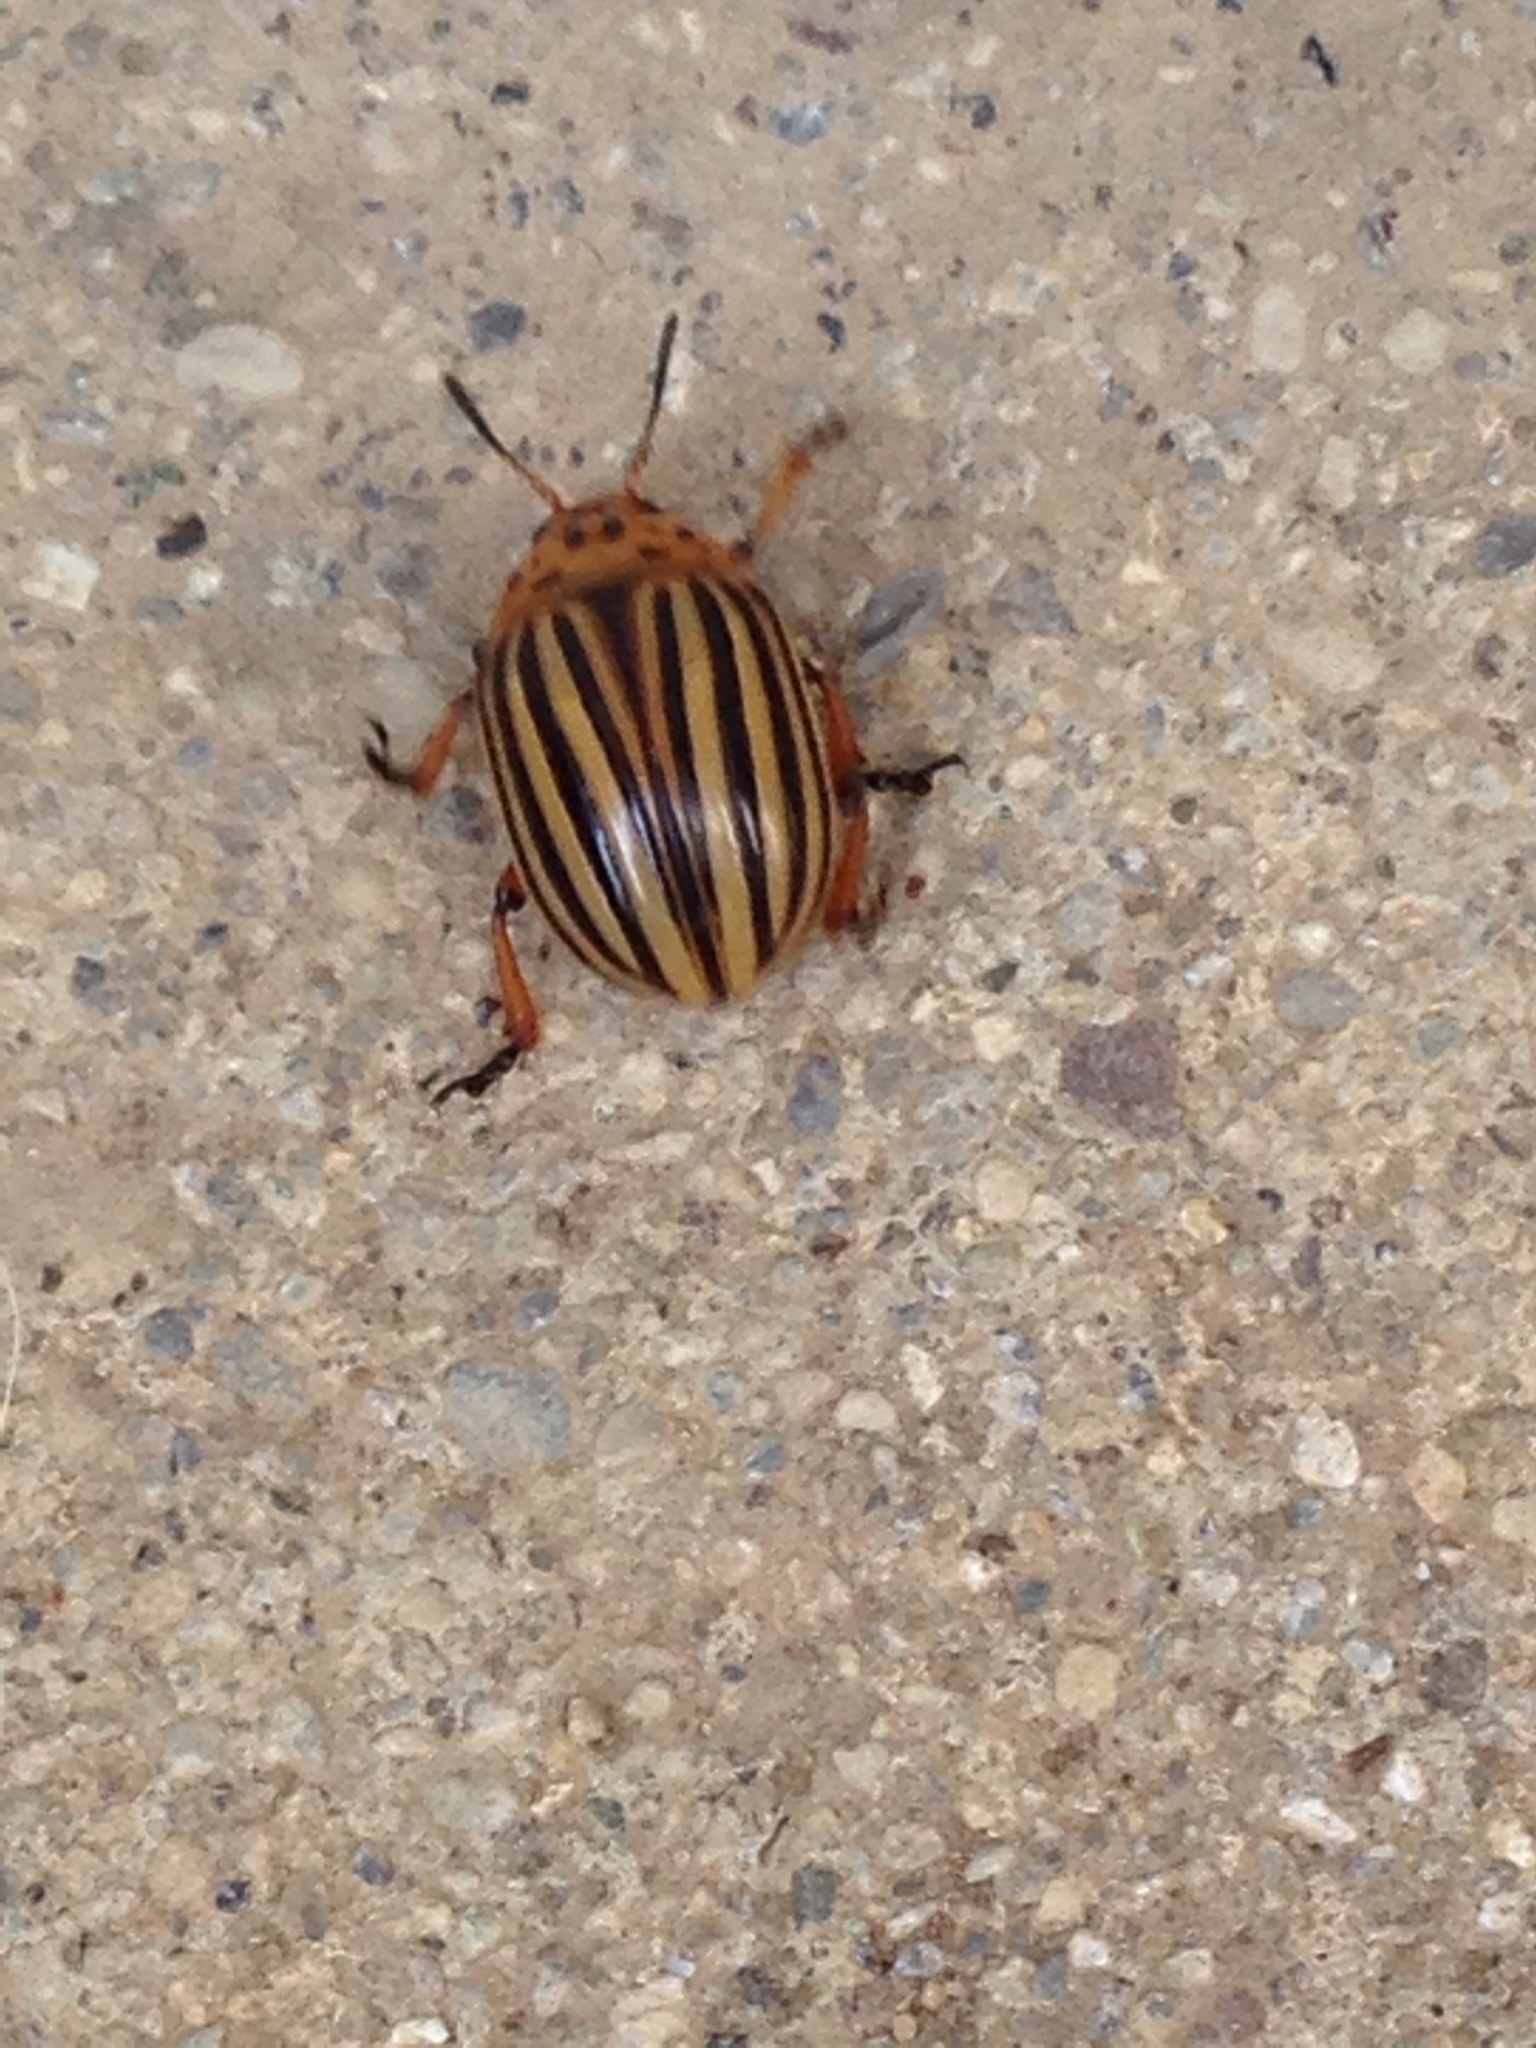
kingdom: Animalia
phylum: Arthropoda
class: Insecta
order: Coleoptera
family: Chrysomelidae
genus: Leptinotarsa
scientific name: Leptinotarsa decemlineata
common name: Colorado potato beetle
